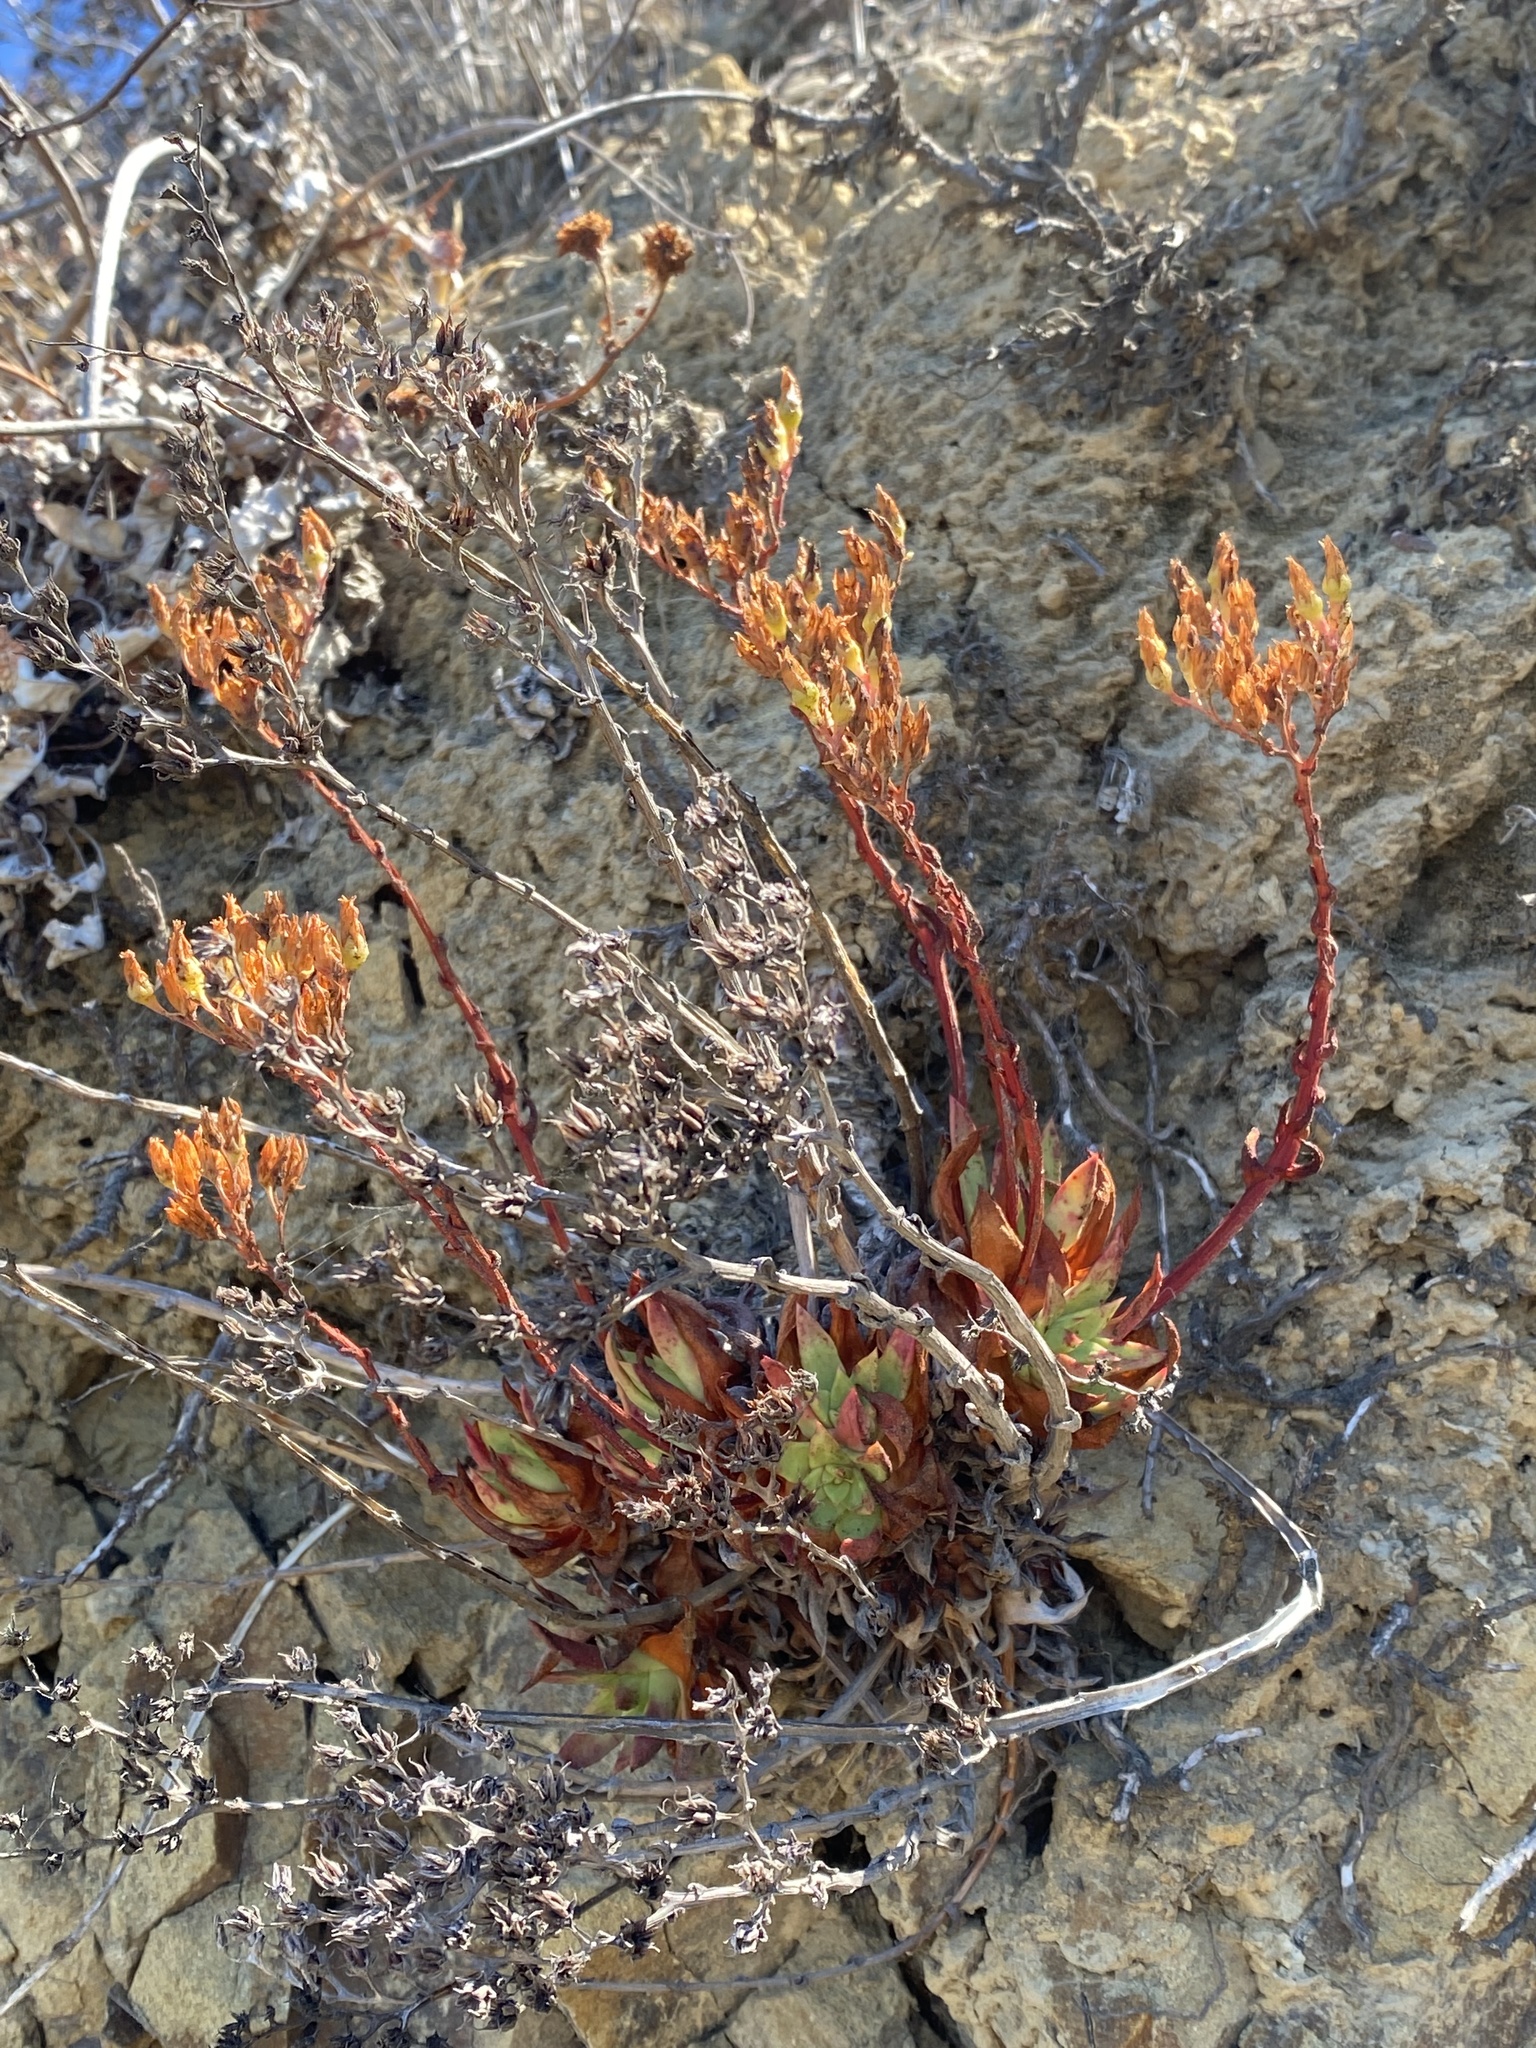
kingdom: Plantae
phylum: Tracheophyta
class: Magnoliopsida
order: Saxifragales
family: Crassulaceae
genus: Dudleya
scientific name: Dudleya farinosa
